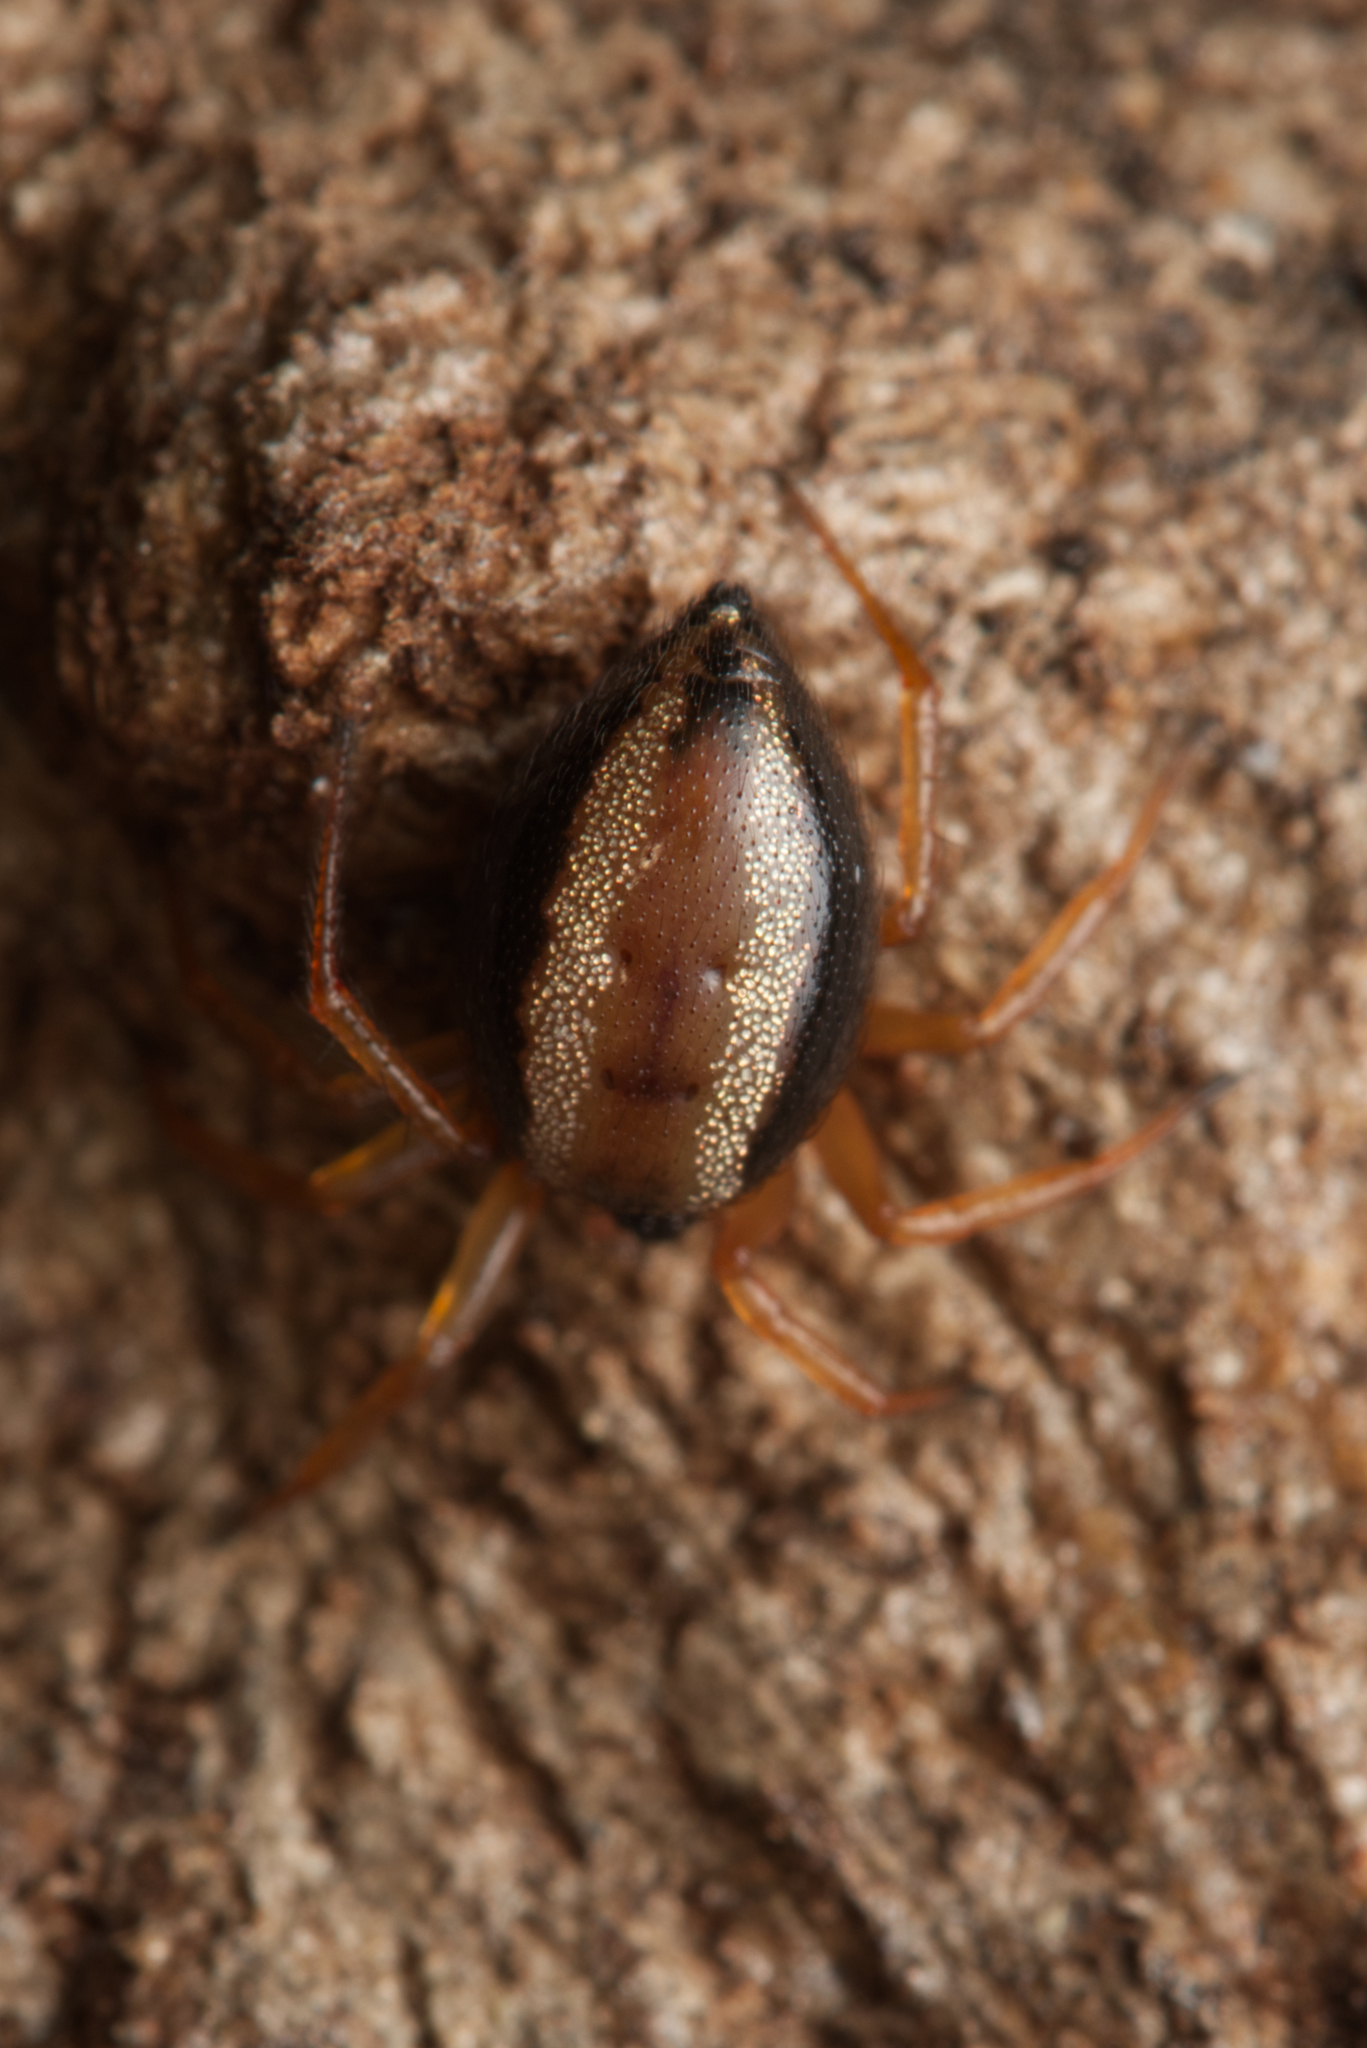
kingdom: Animalia
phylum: Arthropoda
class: Arachnida
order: Araneae
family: Theridiidae
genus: Euryopis
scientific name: Euryopis umbilicata
